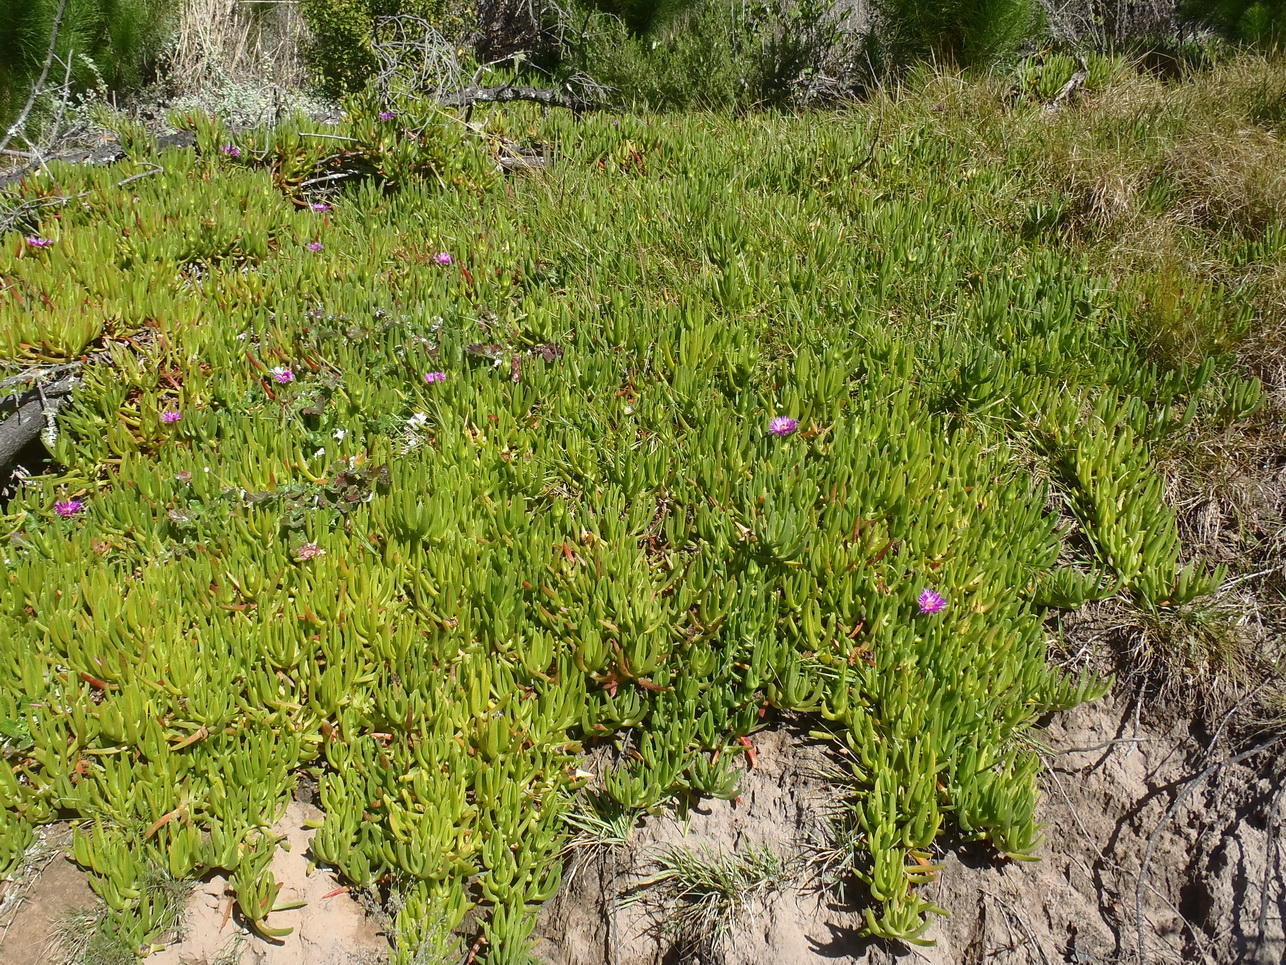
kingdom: Plantae
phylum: Tracheophyta
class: Magnoliopsida
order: Caryophyllales
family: Aizoaceae
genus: Carpobrotus
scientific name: Carpobrotus deliciosus
